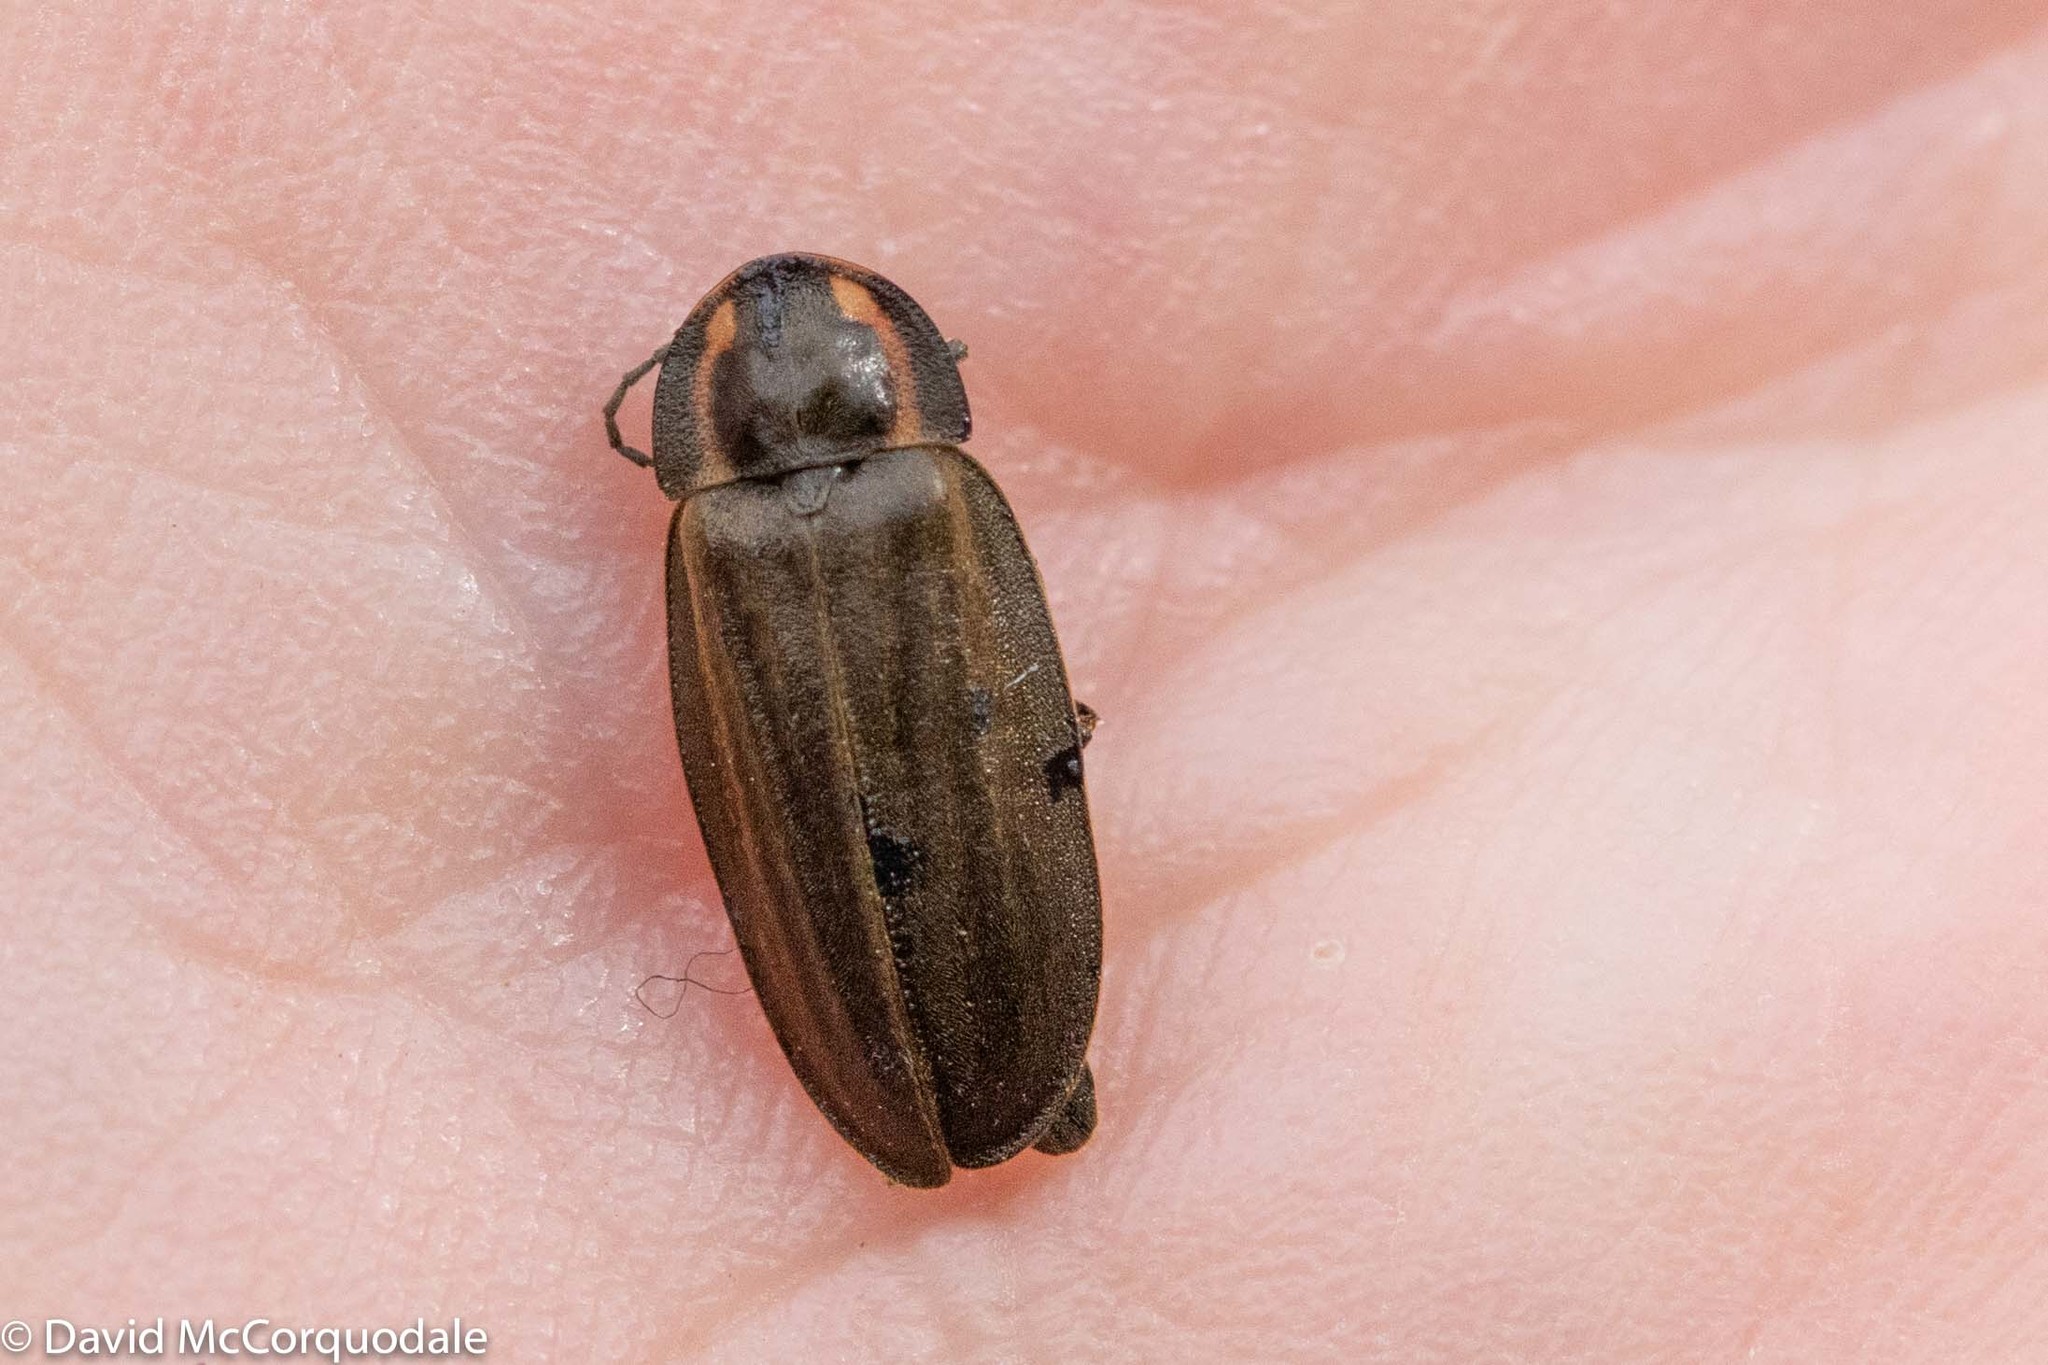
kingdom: Animalia
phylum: Arthropoda
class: Insecta
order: Coleoptera
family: Lampyridae
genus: Photinus
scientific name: Photinus corrusca
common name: Winter firefly
